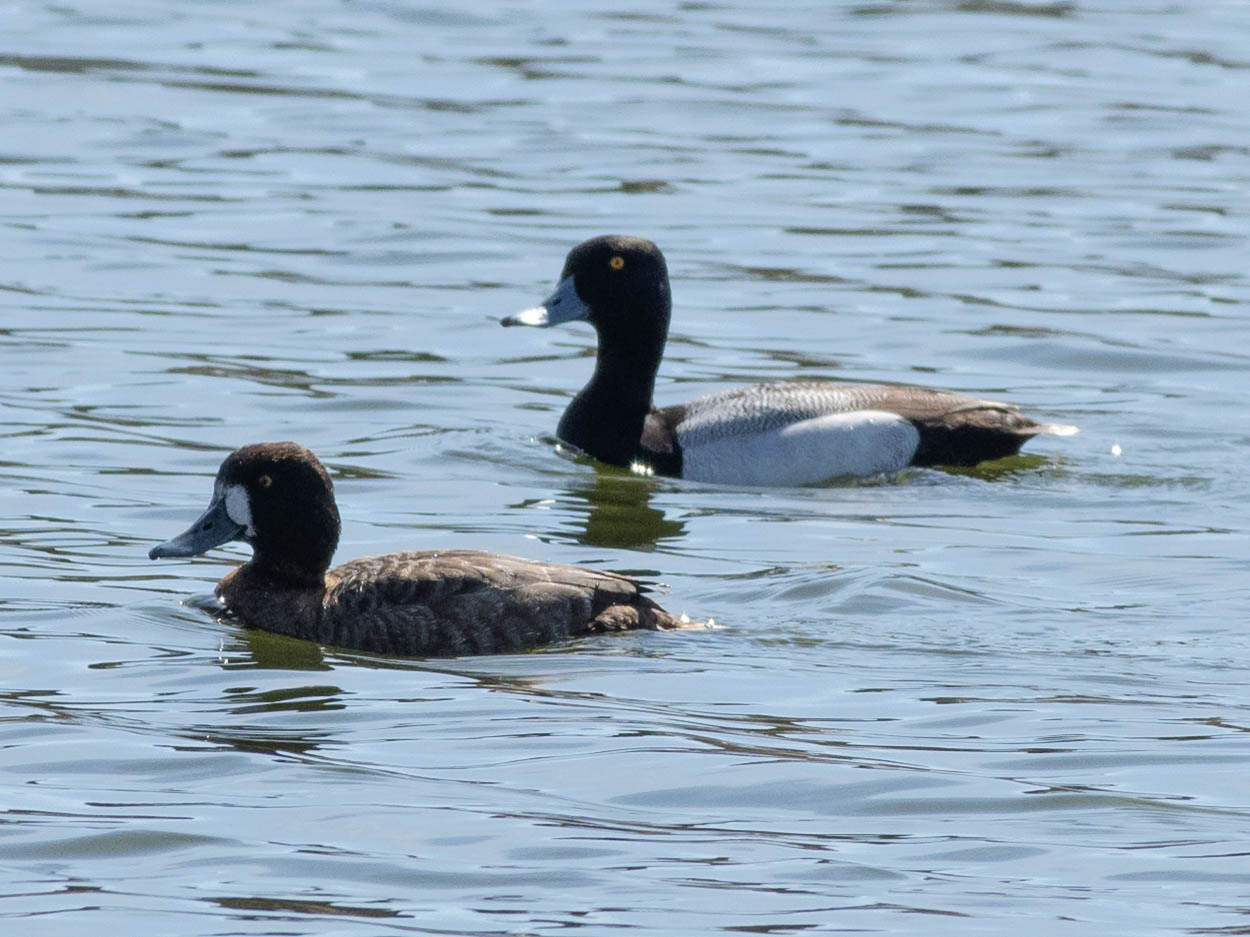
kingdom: Animalia
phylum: Chordata
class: Aves
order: Anseriformes
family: Anatidae
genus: Aythya
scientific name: Aythya marila
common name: Greater scaup
